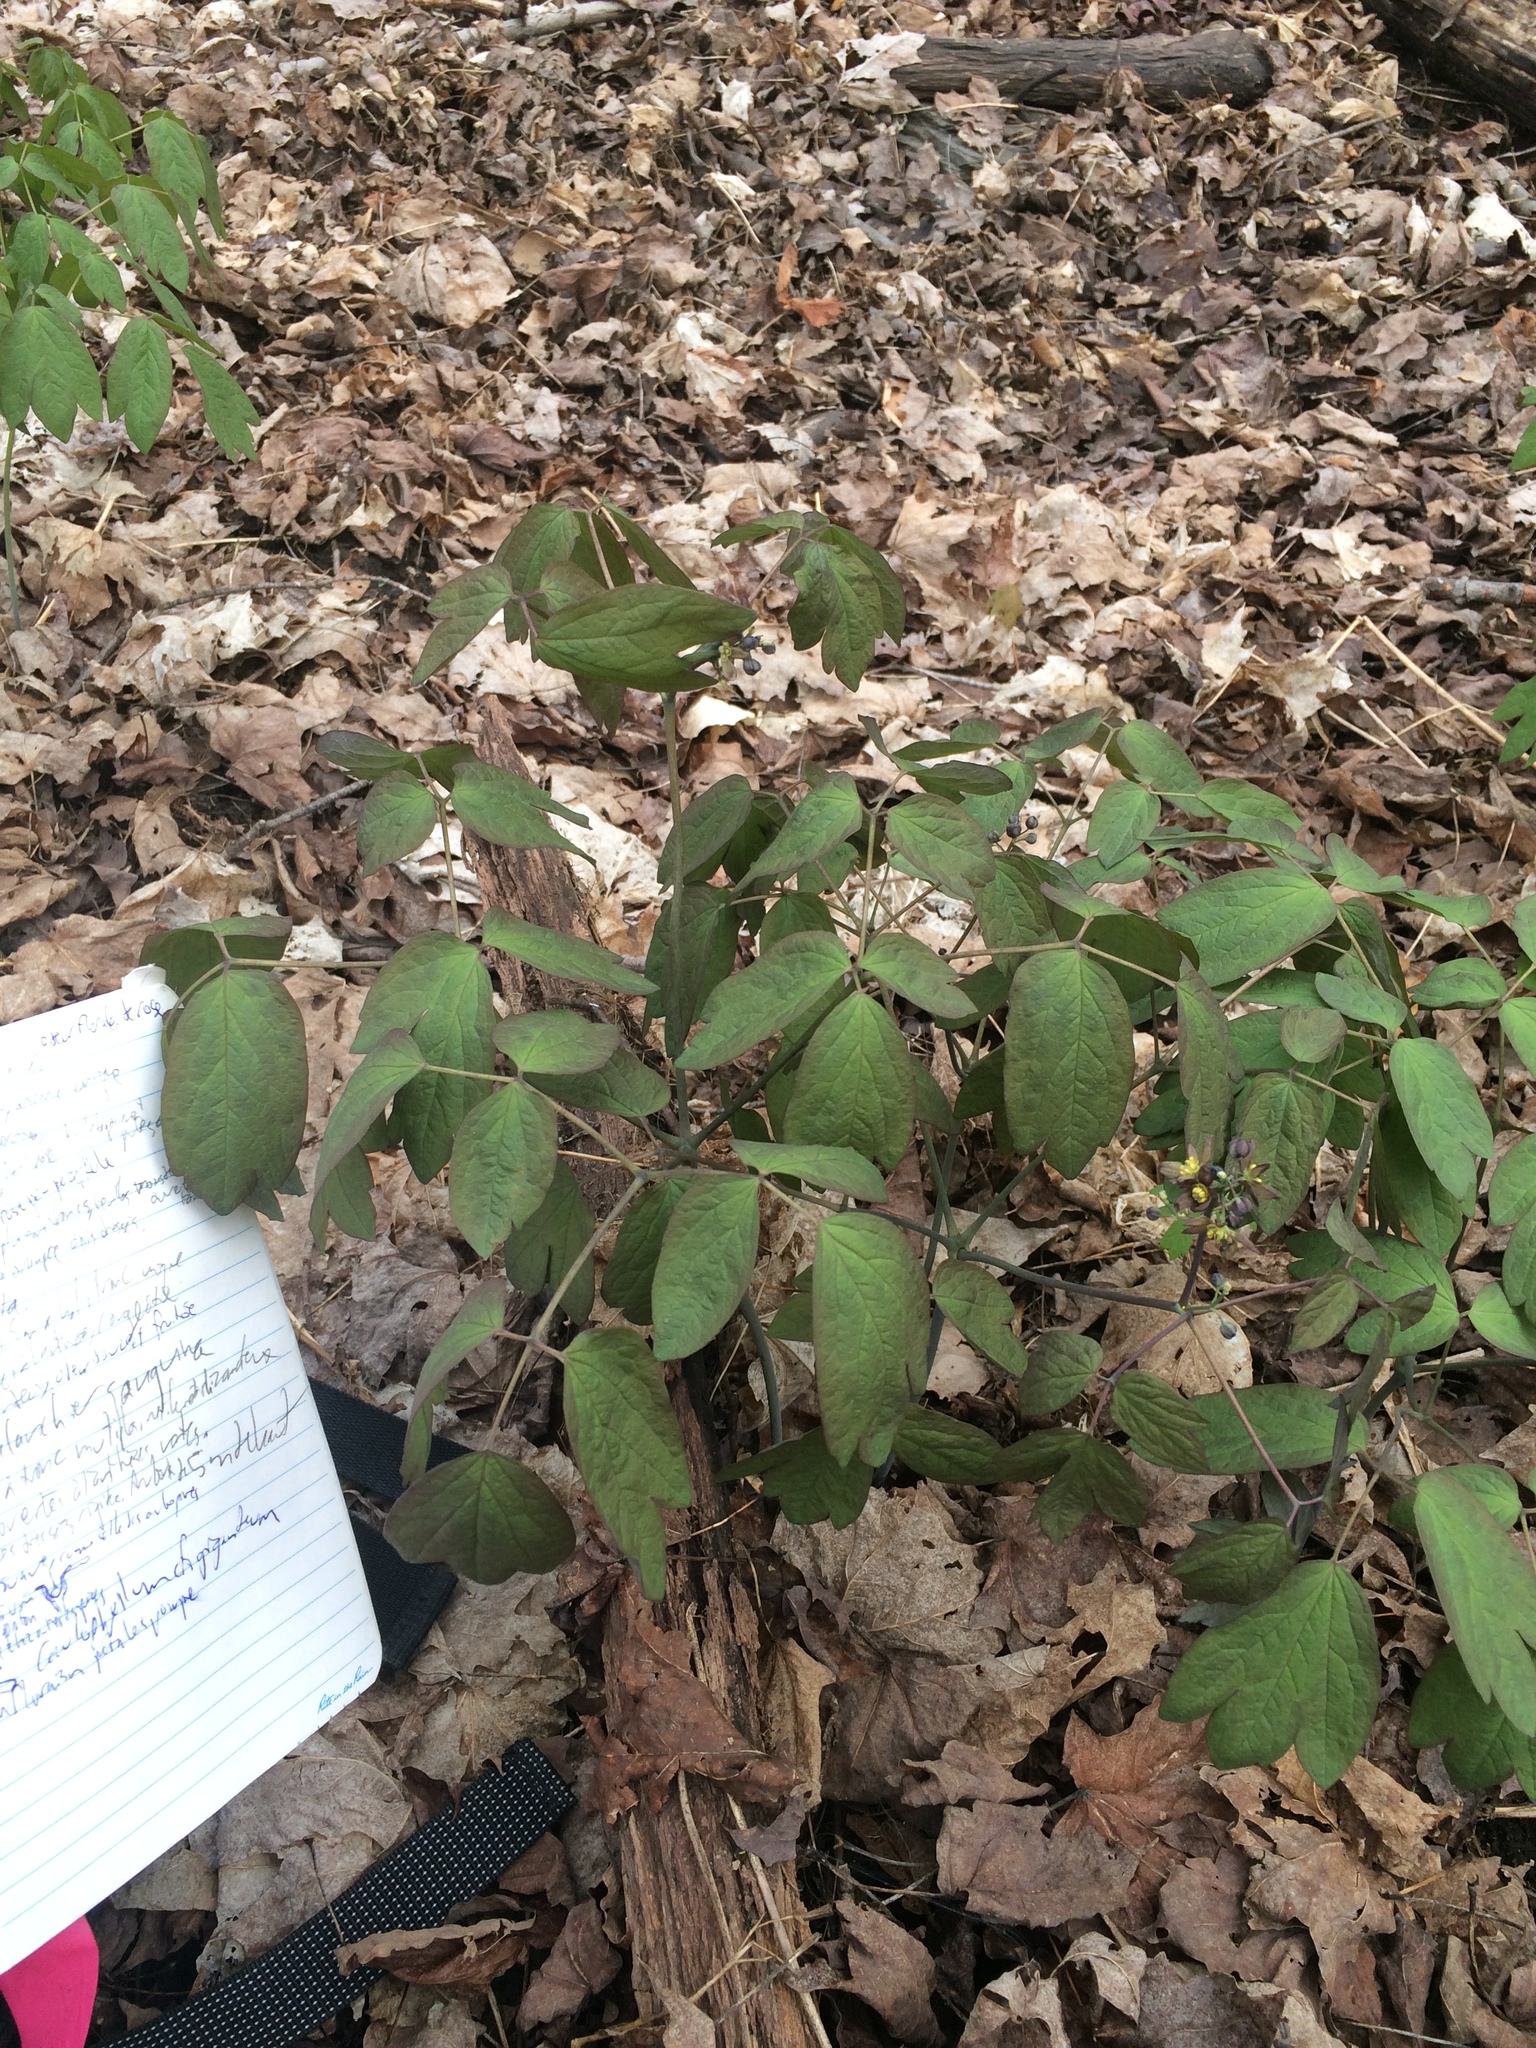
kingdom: Plantae
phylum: Tracheophyta
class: Magnoliopsida
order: Ranunculales
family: Berberidaceae
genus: Caulophyllum
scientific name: Caulophyllum giganteum
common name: Blue cohosh
